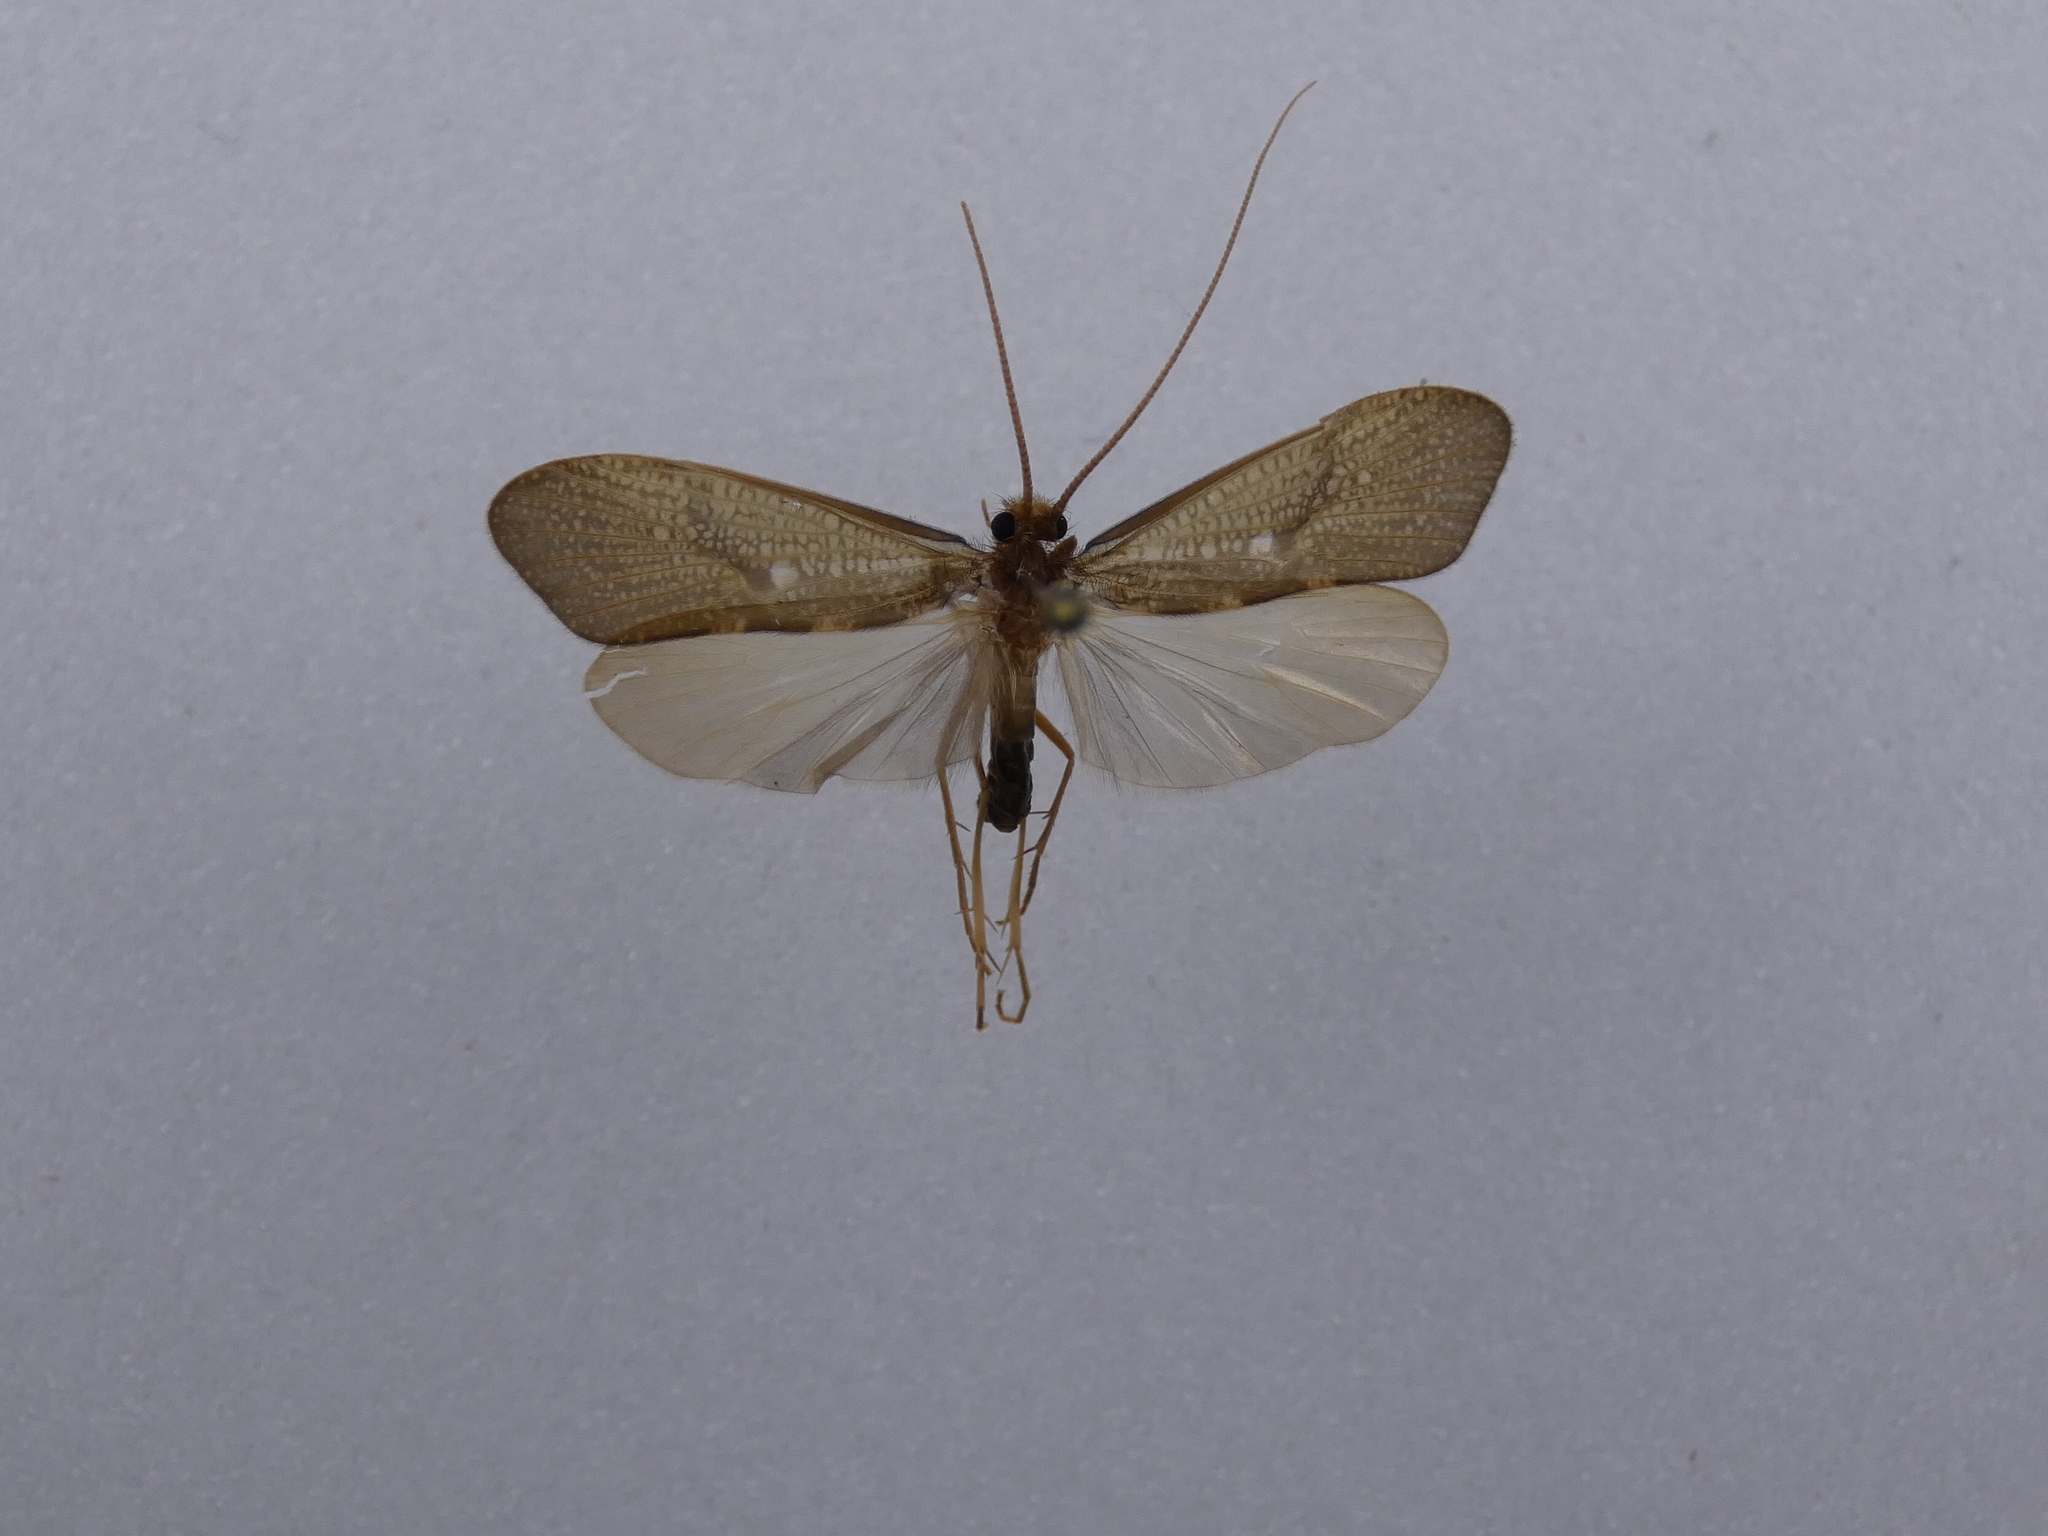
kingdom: Animalia
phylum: Arthropoda
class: Insecta
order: Trichoptera
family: Oeconesidae
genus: Oeconesus
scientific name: Oeconesus maori
